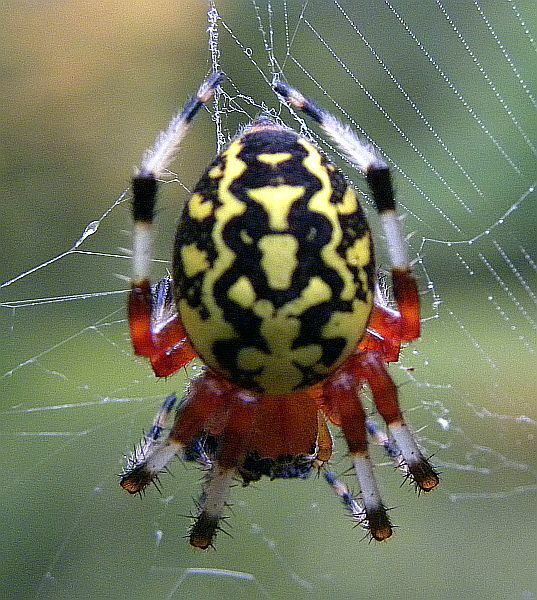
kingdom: Animalia
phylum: Arthropoda
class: Arachnida
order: Araneae
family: Araneidae
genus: Araneus
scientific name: Araneus marmoreus
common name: Marbled orbweaver
